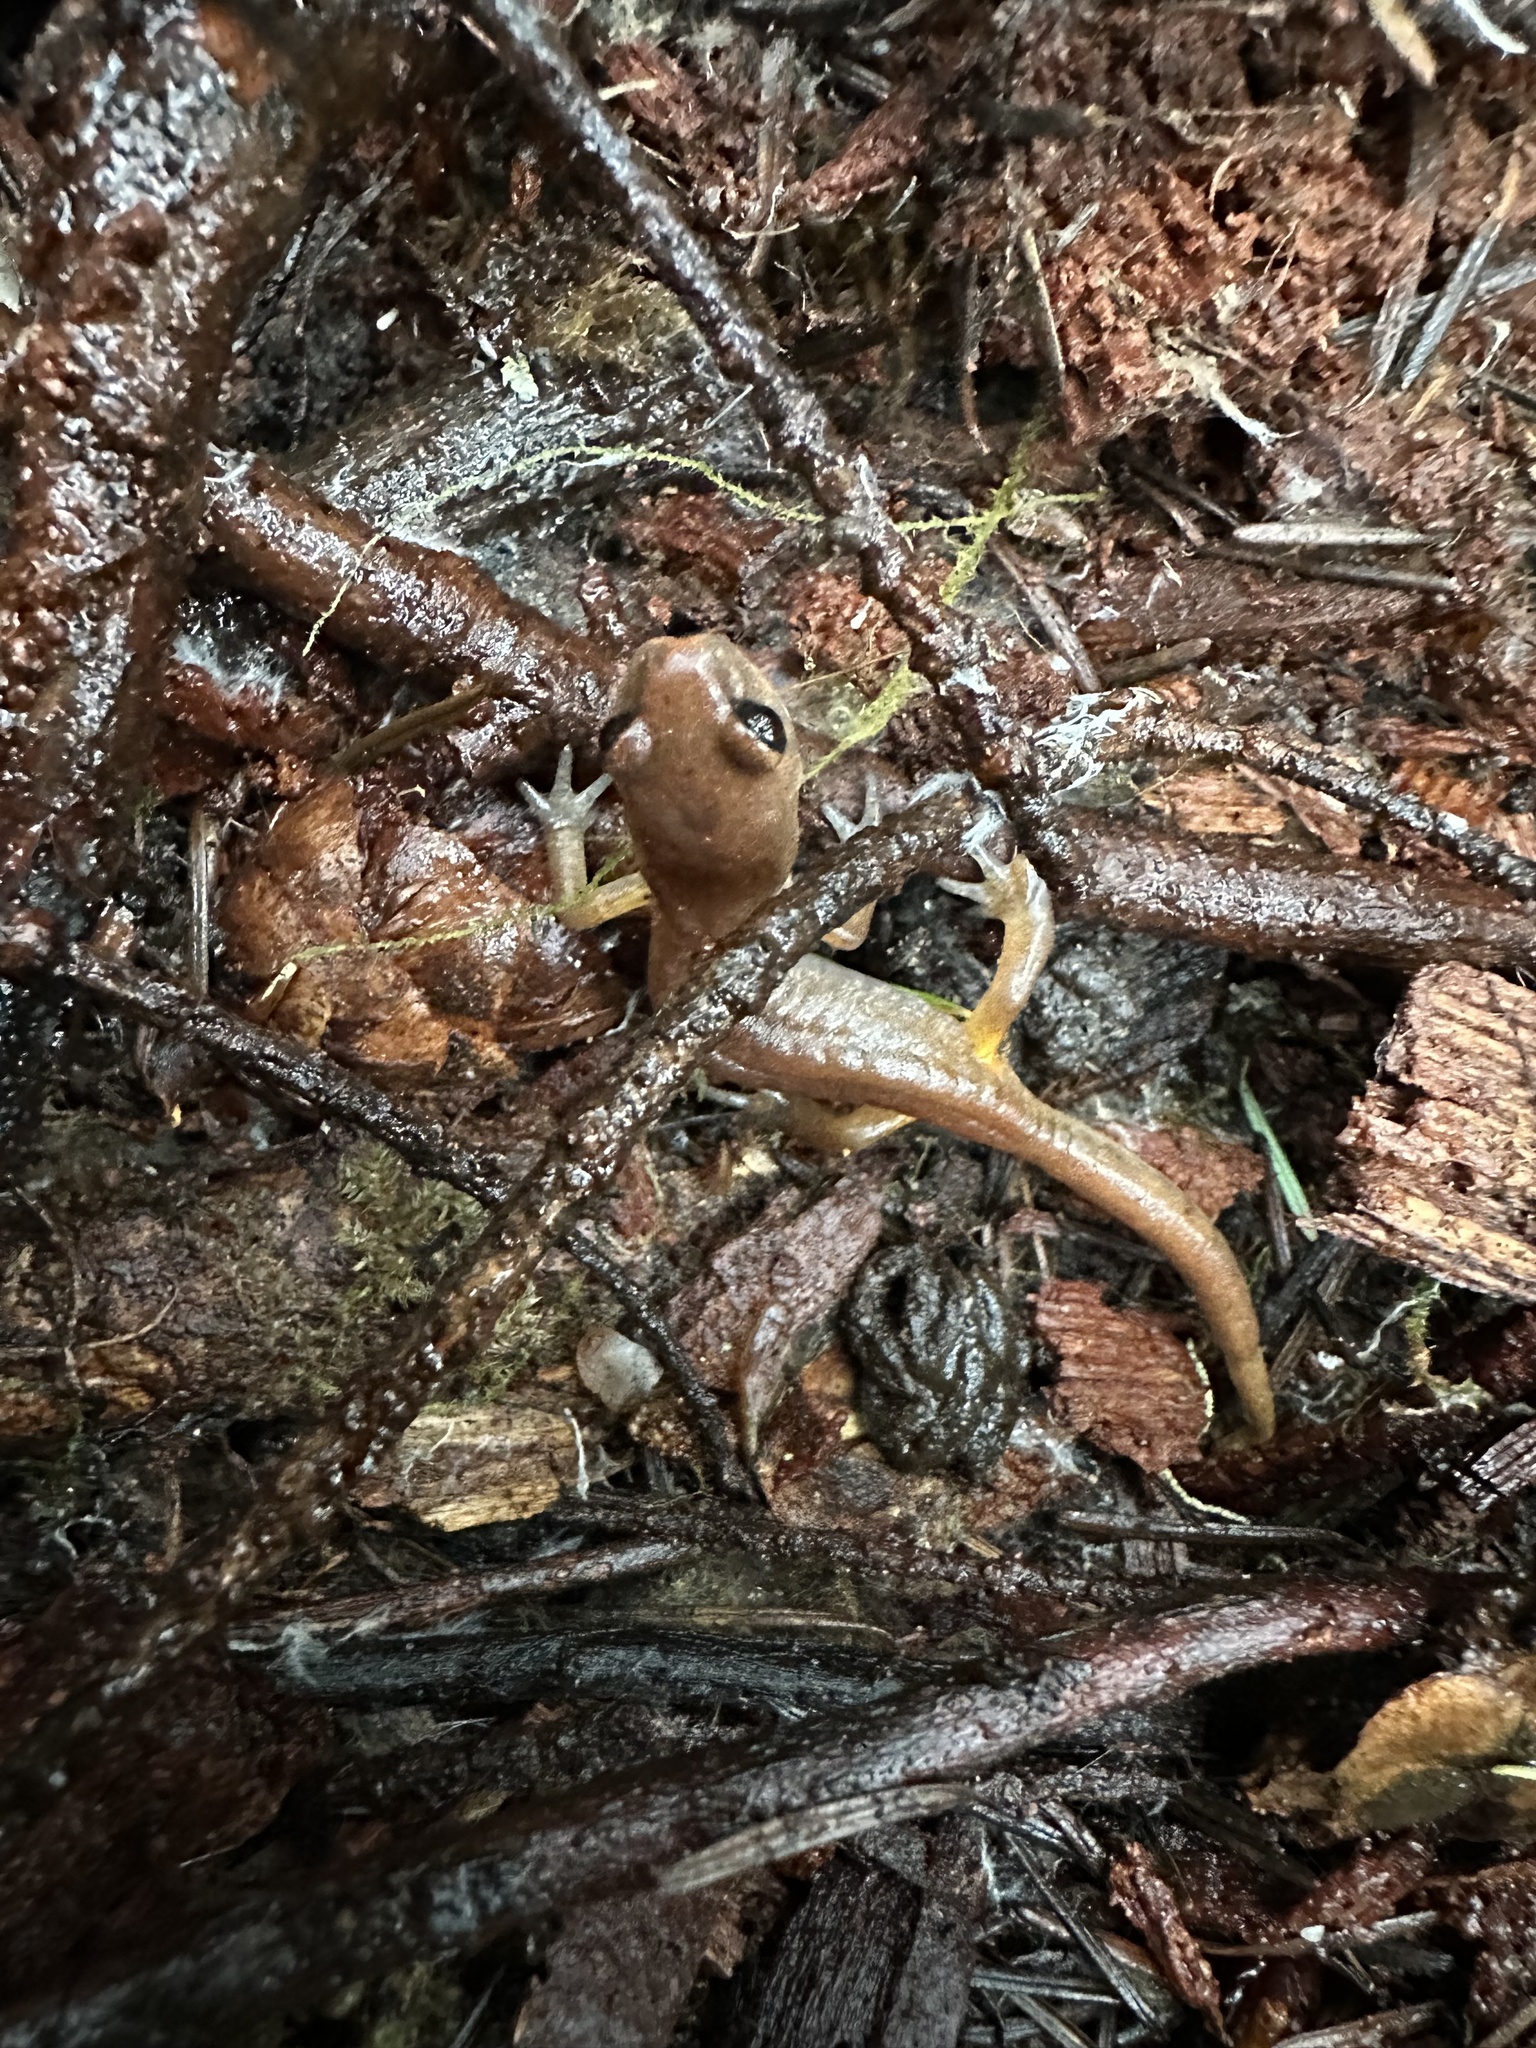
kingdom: Animalia
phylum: Chordata
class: Amphibia
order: Caudata
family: Plethodontidae
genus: Ensatina
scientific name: Ensatina eschscholtzii
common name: Ensatina
